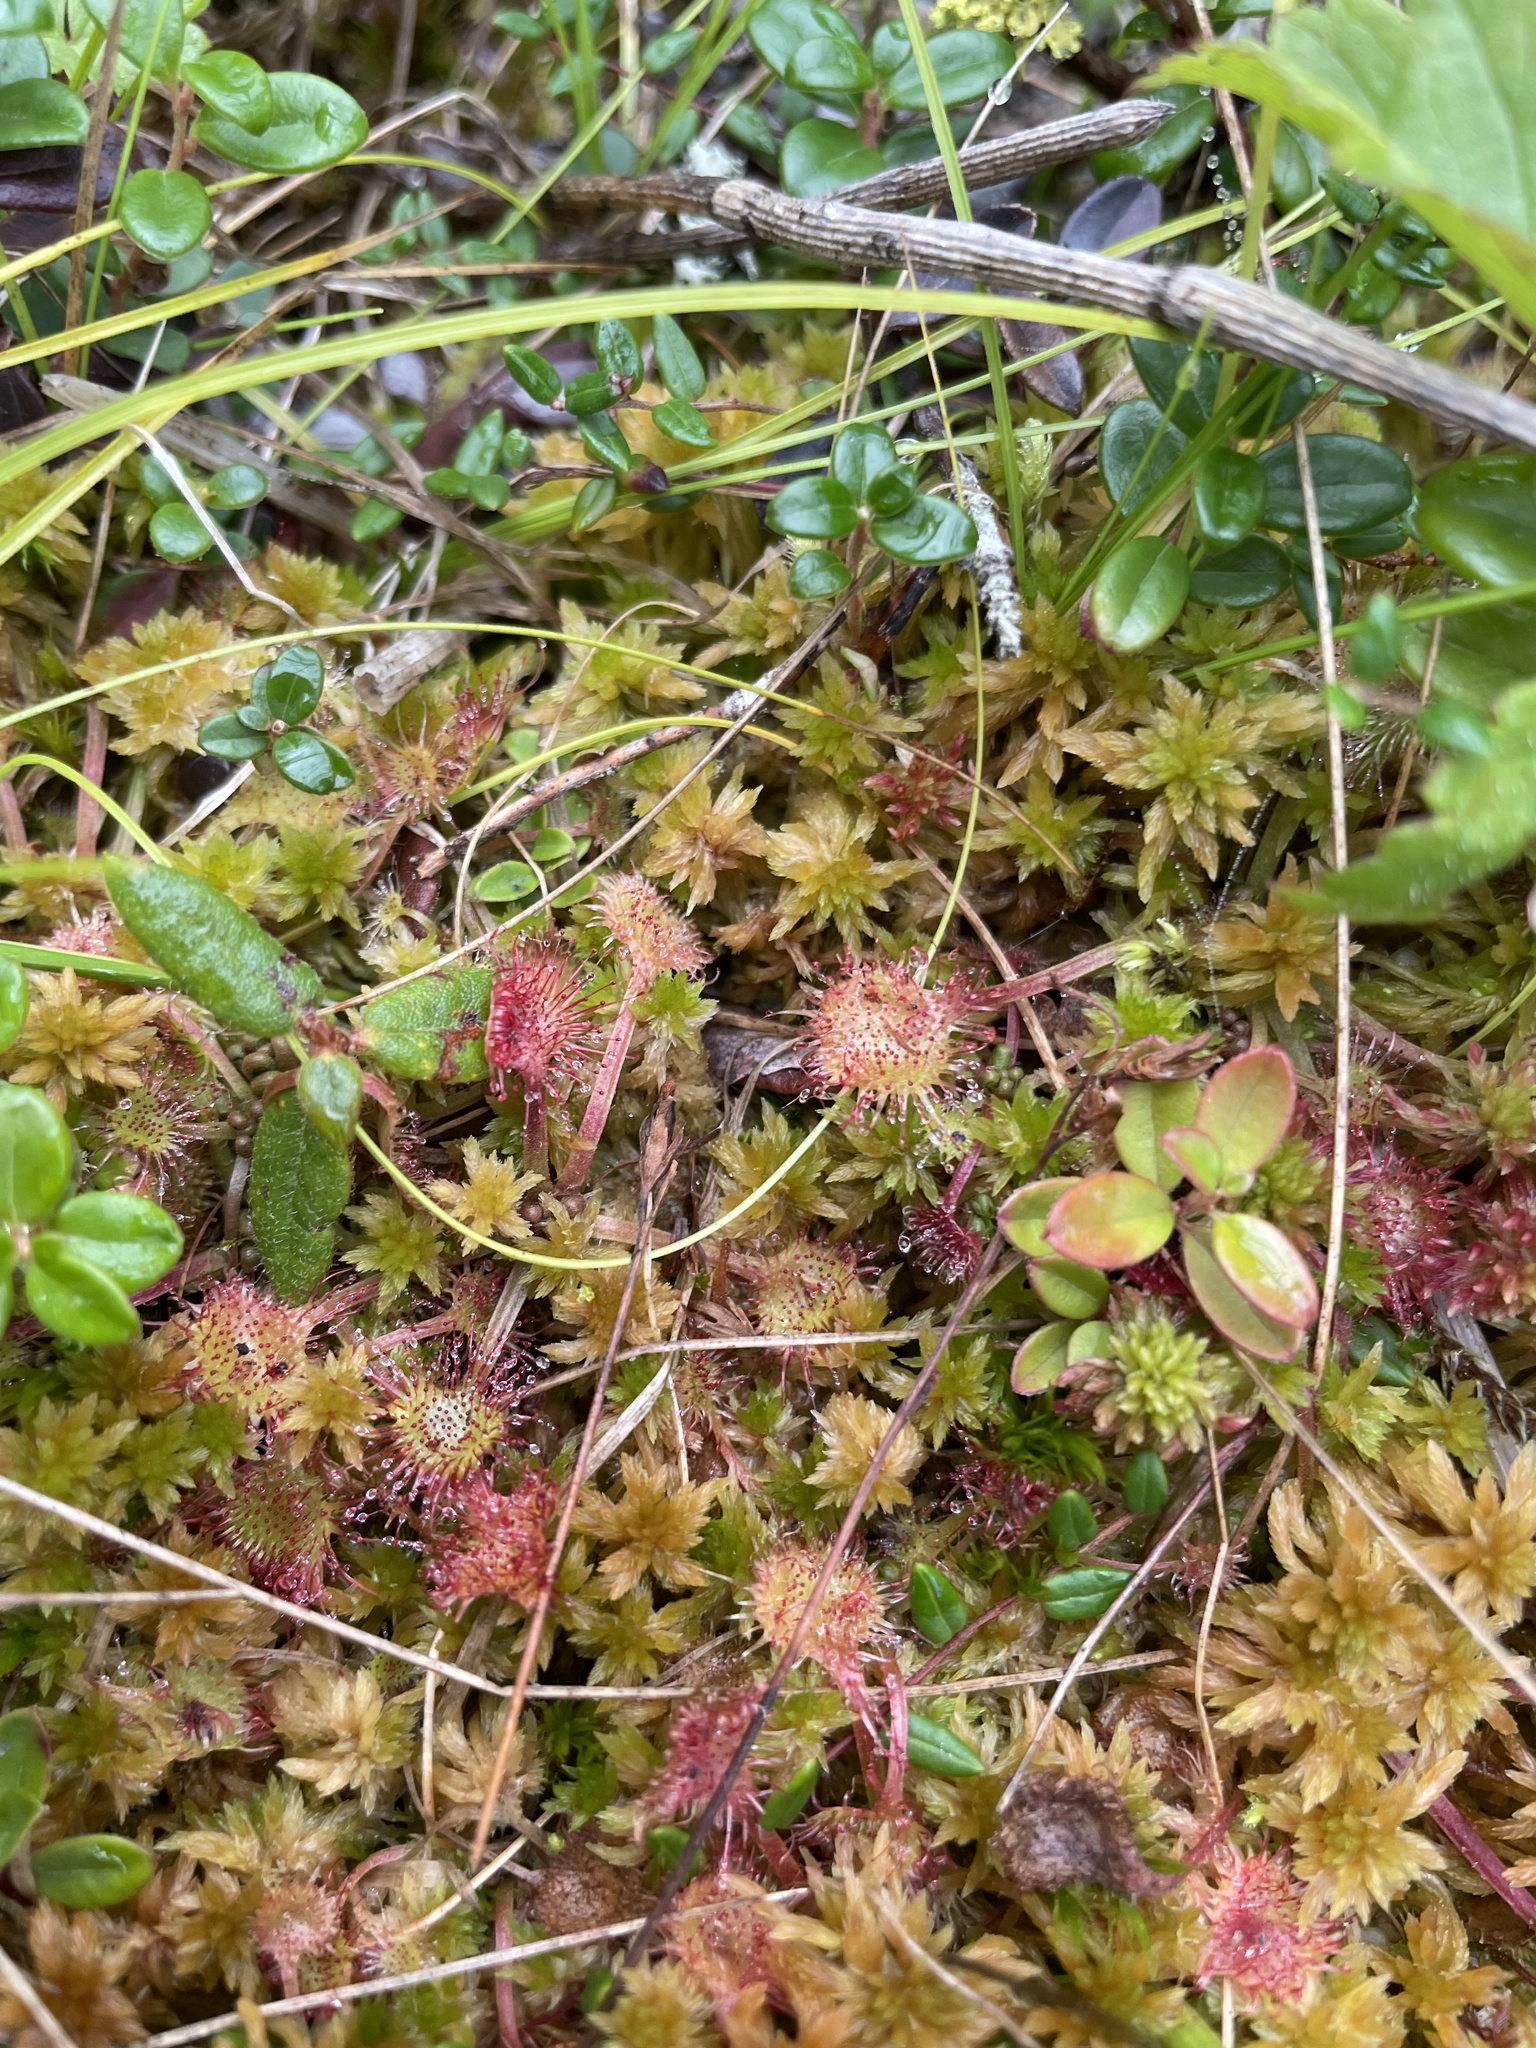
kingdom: Plantae
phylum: Tracheophyta
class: Magnoliopsida
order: Caryophyllales
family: Droseraceae
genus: Drosera
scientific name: Drosera rotundifolia
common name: Round-leaved sundew
